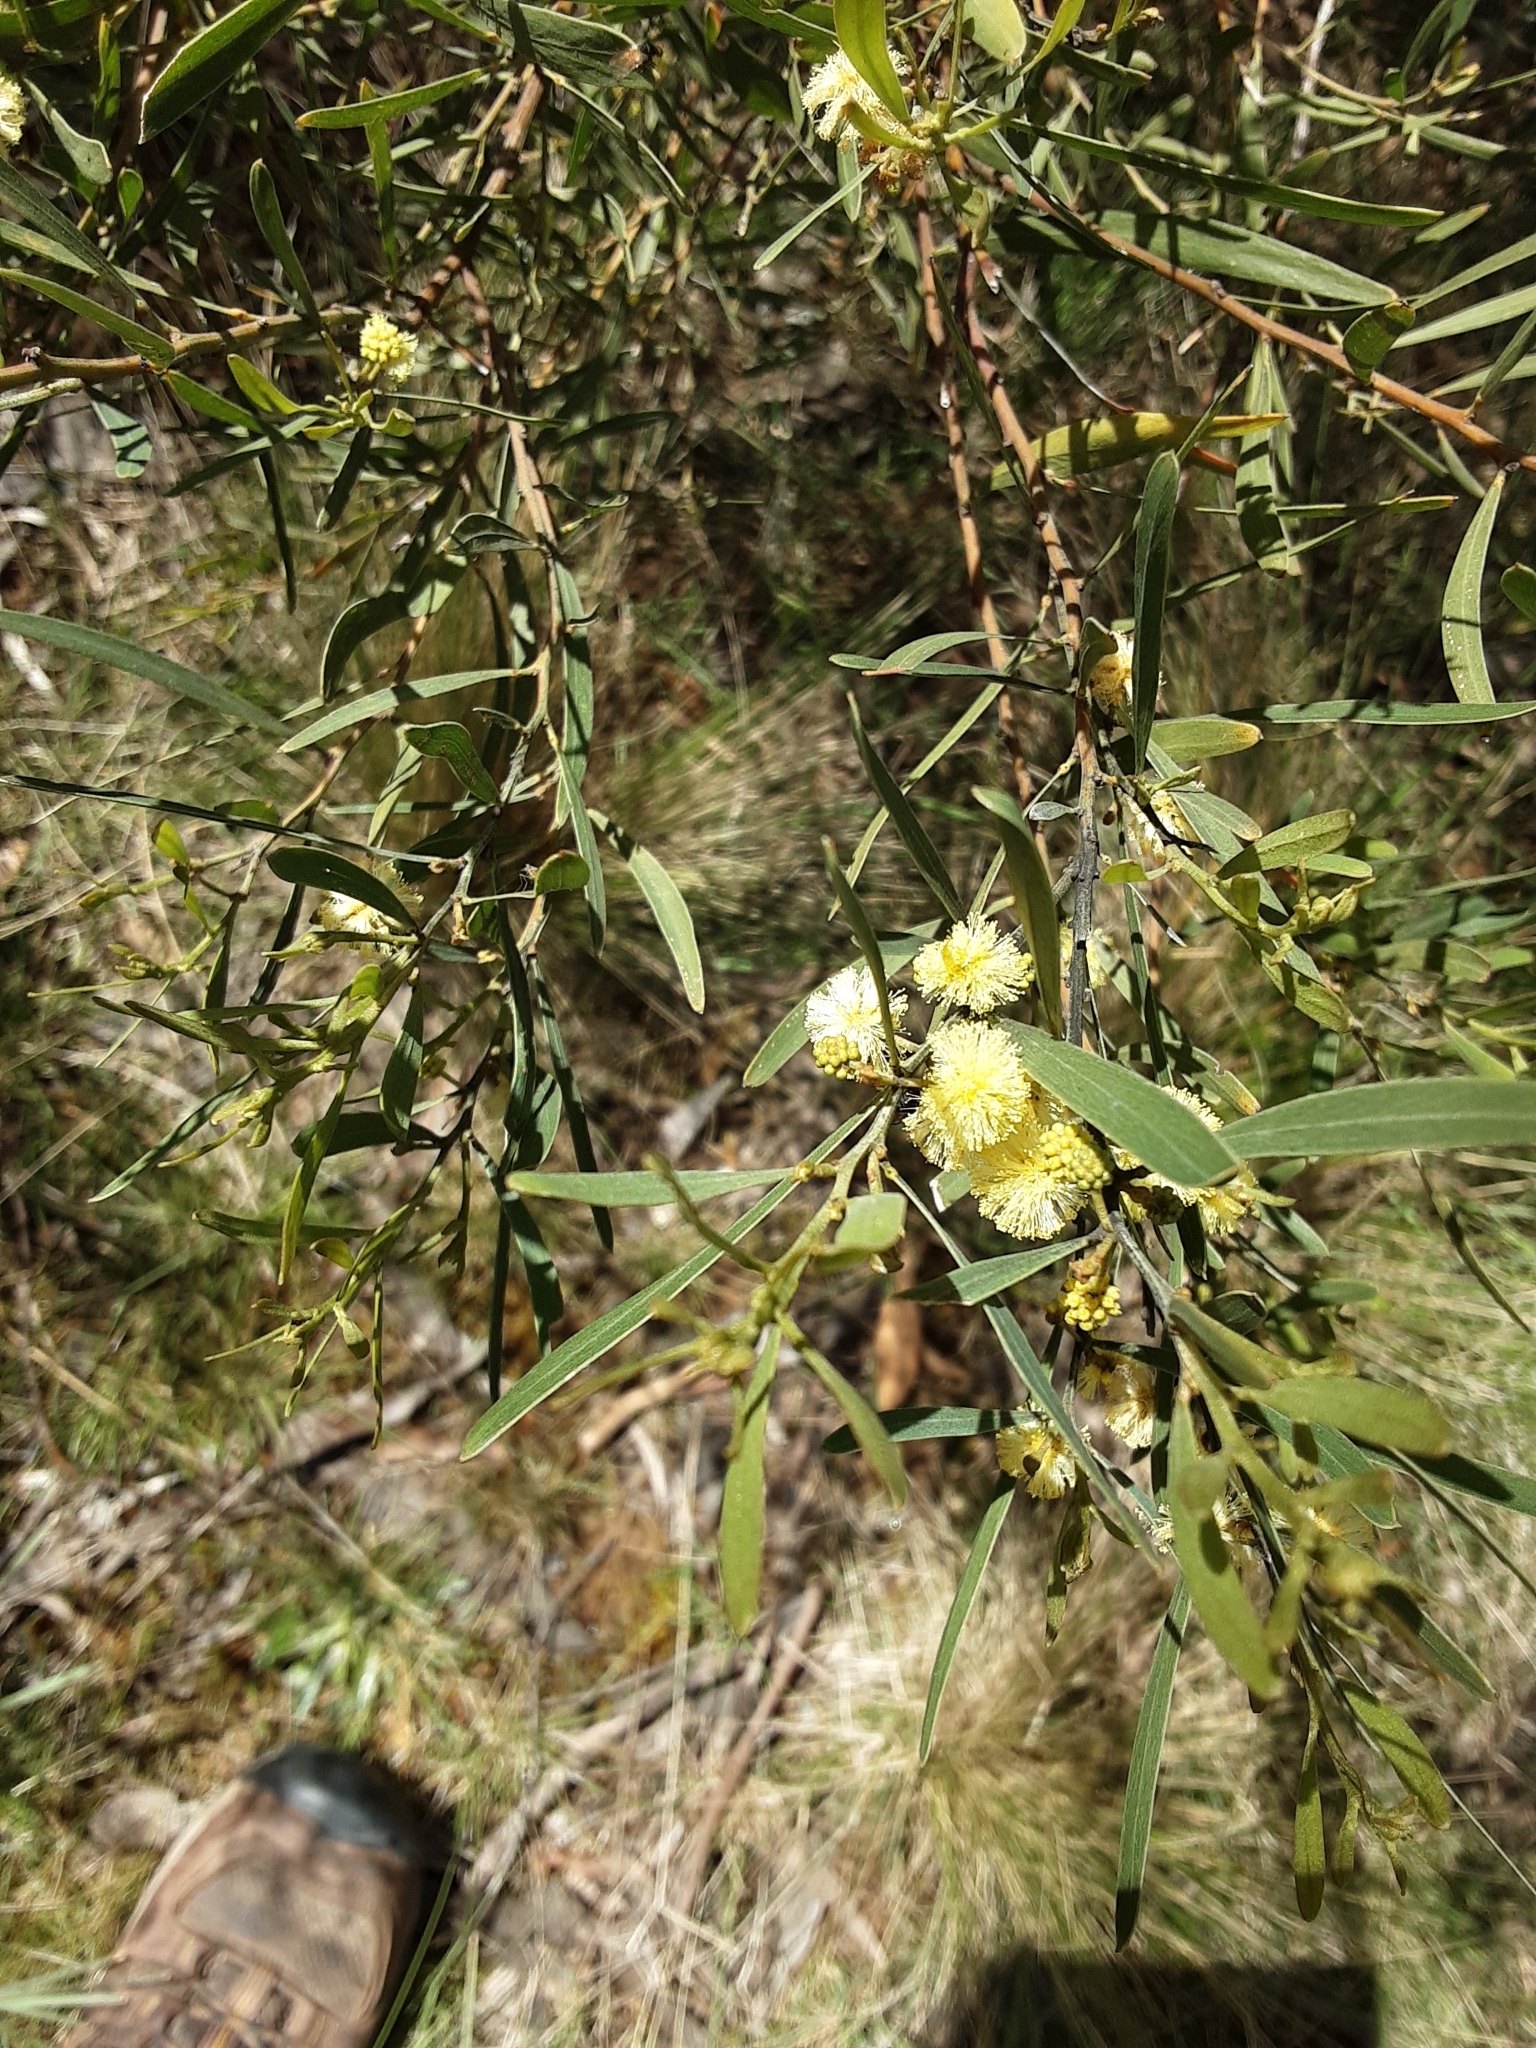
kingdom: Plantae
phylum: Tracheophyta
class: Magnoliopsida
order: Fabales
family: Fabaceae
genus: Acacia
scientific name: Acacia stricta
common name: Hop wattle
